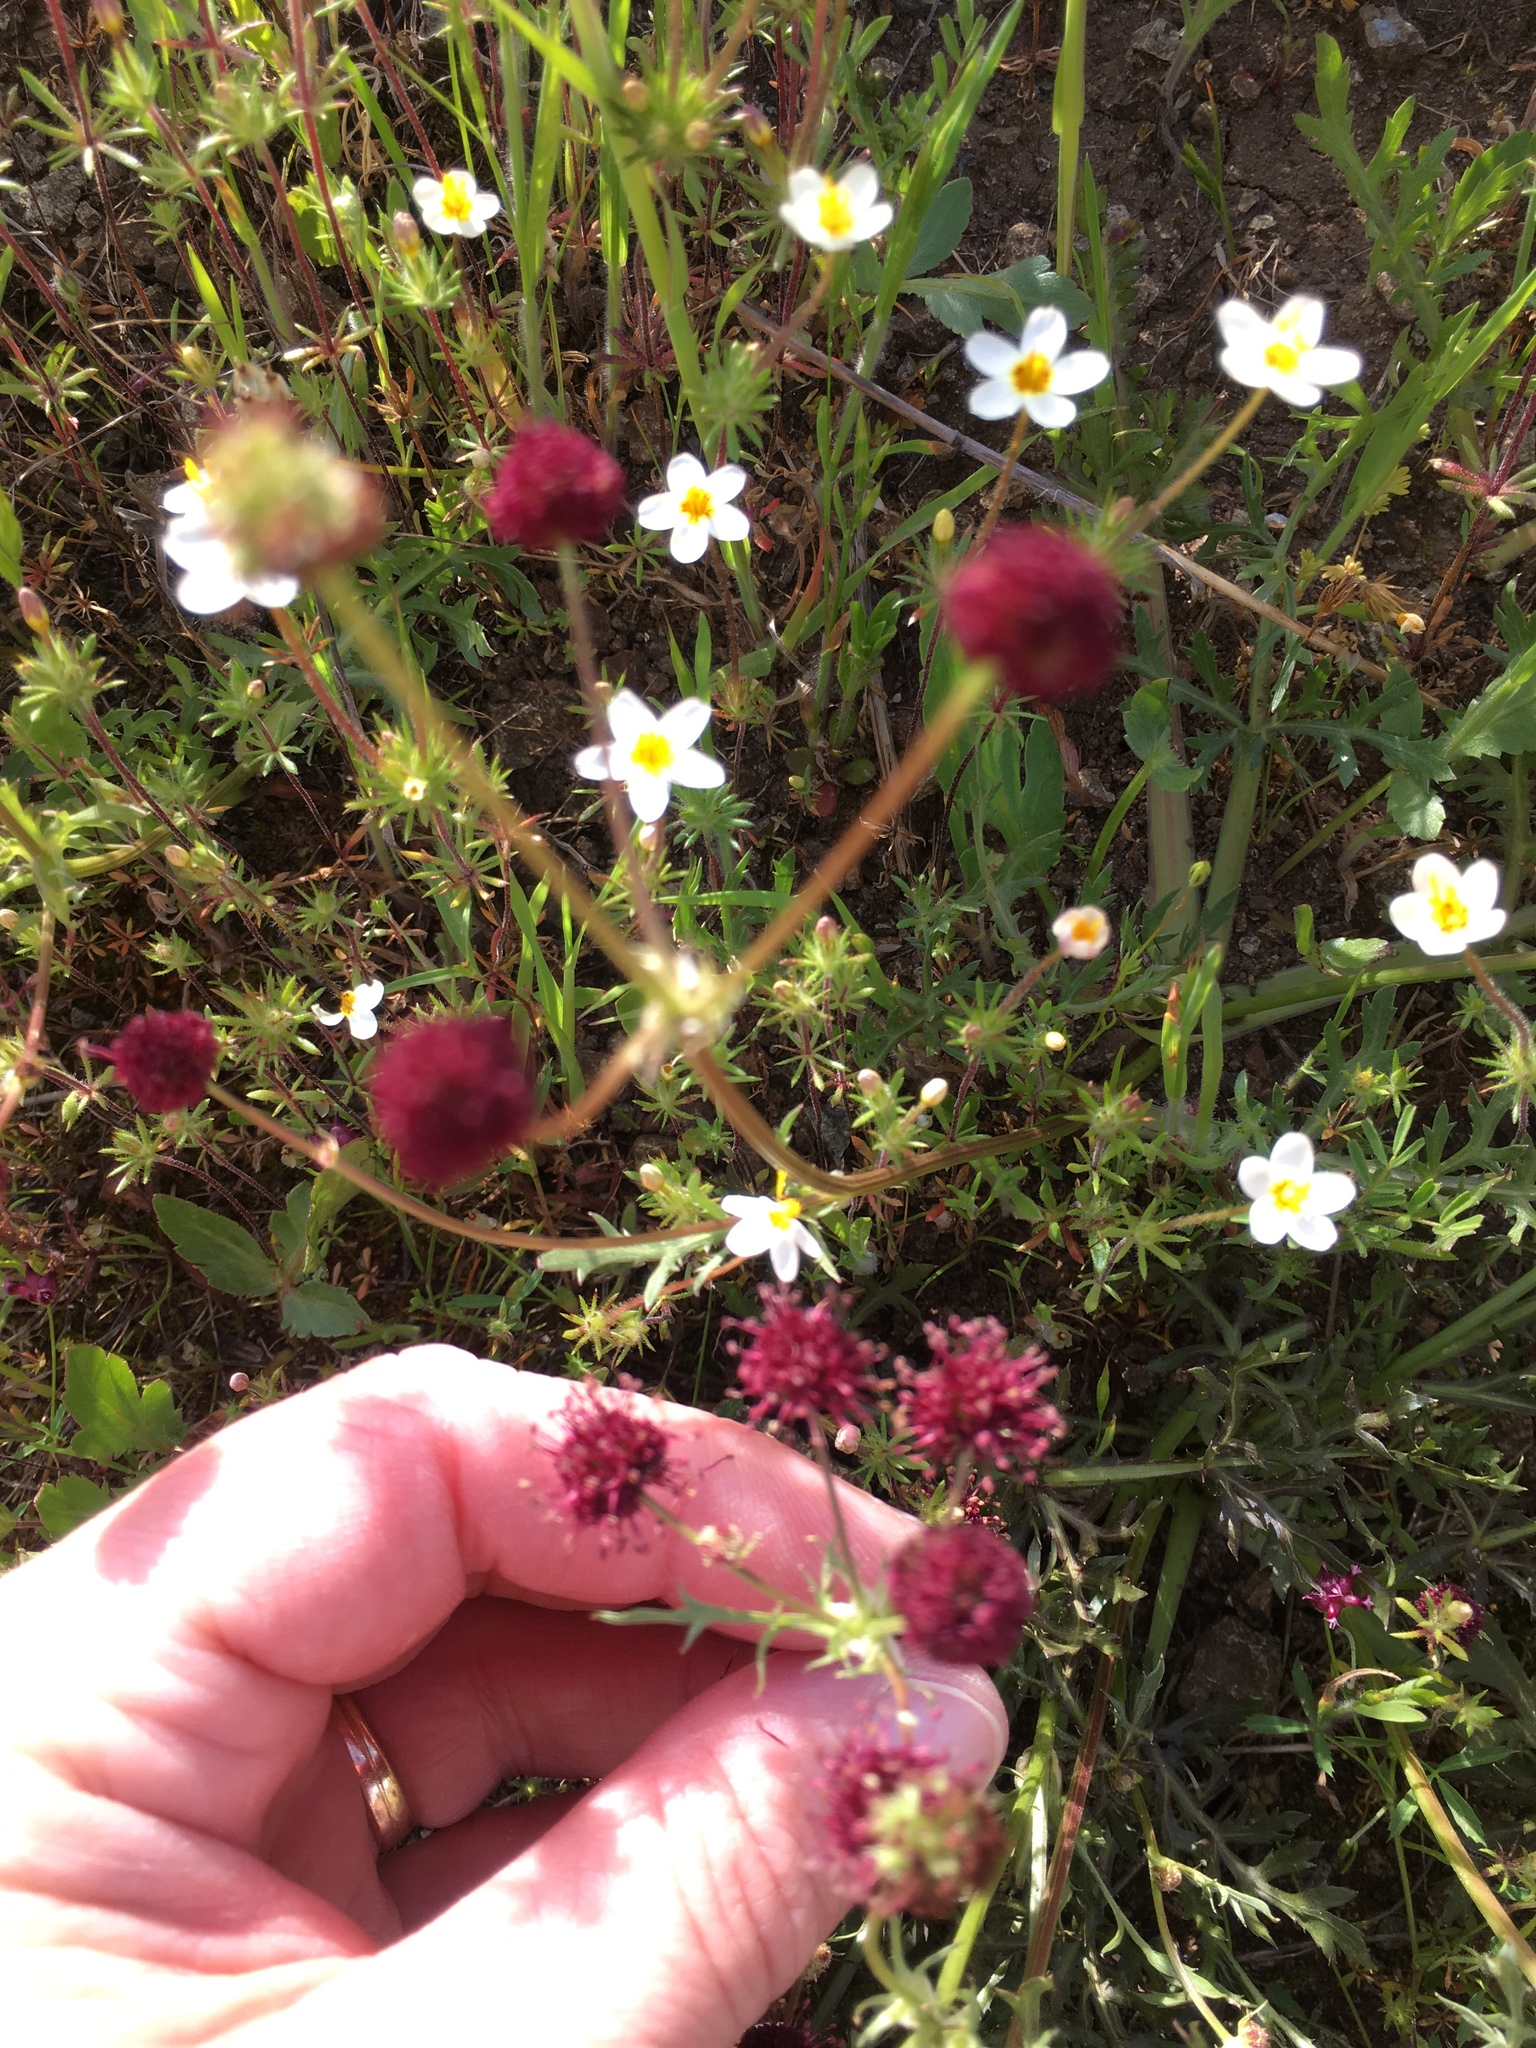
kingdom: Plantae
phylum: Tracheophyta
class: Magnoliopsida
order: Apiales
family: Apiaceae
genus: Sanicula
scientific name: Sanicula bipinnatifida
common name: Shoe-buttons
